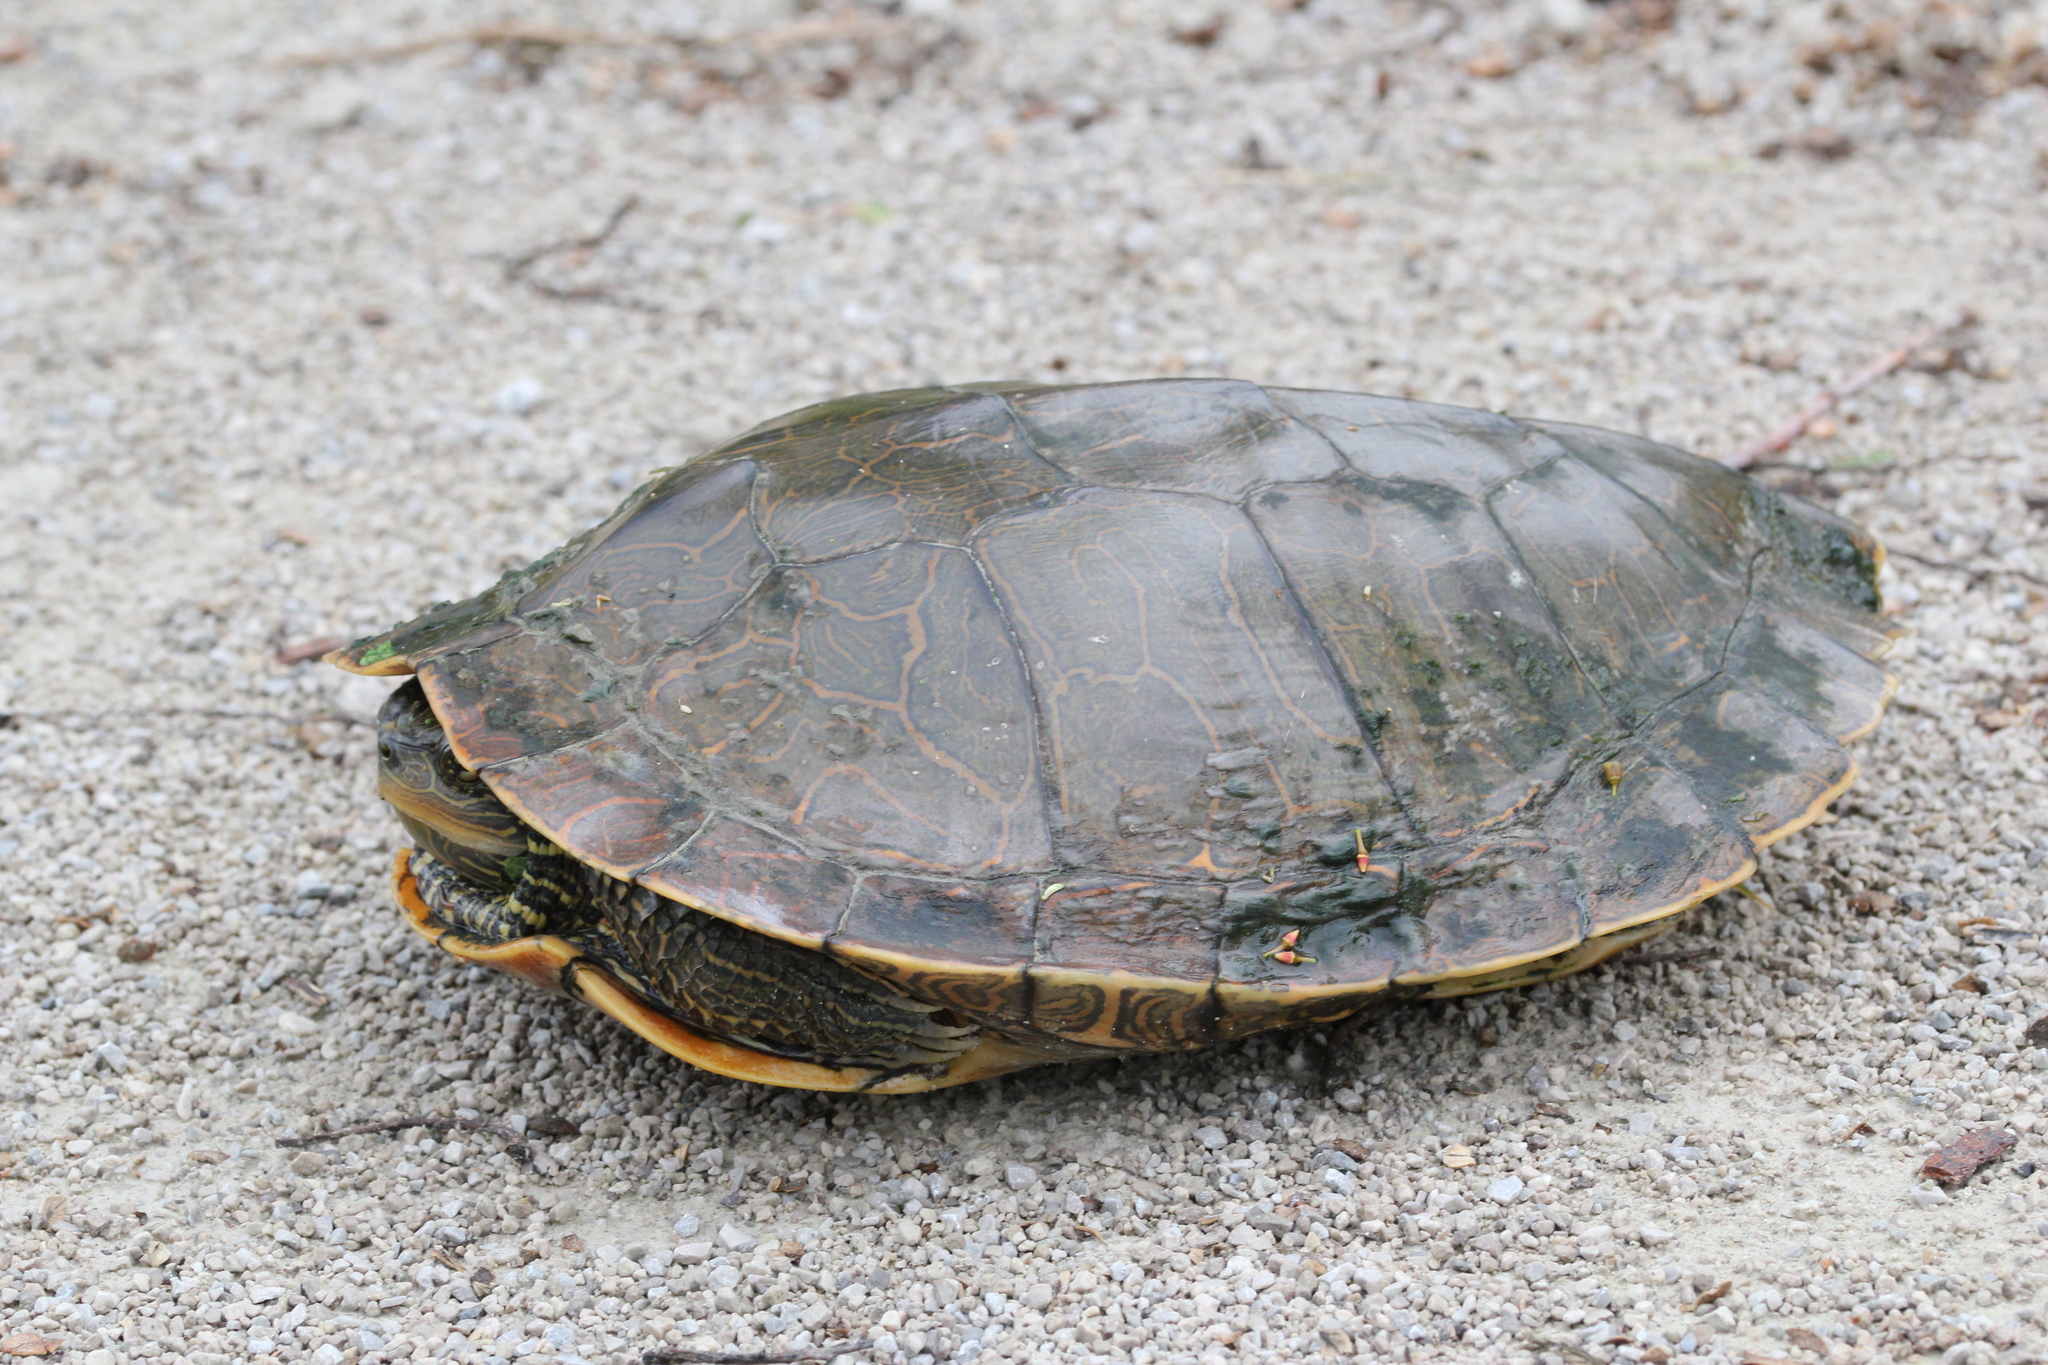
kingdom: Animalia
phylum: Chordata
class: Testudines
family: Emydidae
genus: Graptemys
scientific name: Graptemys geographica
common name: Common map turtle
